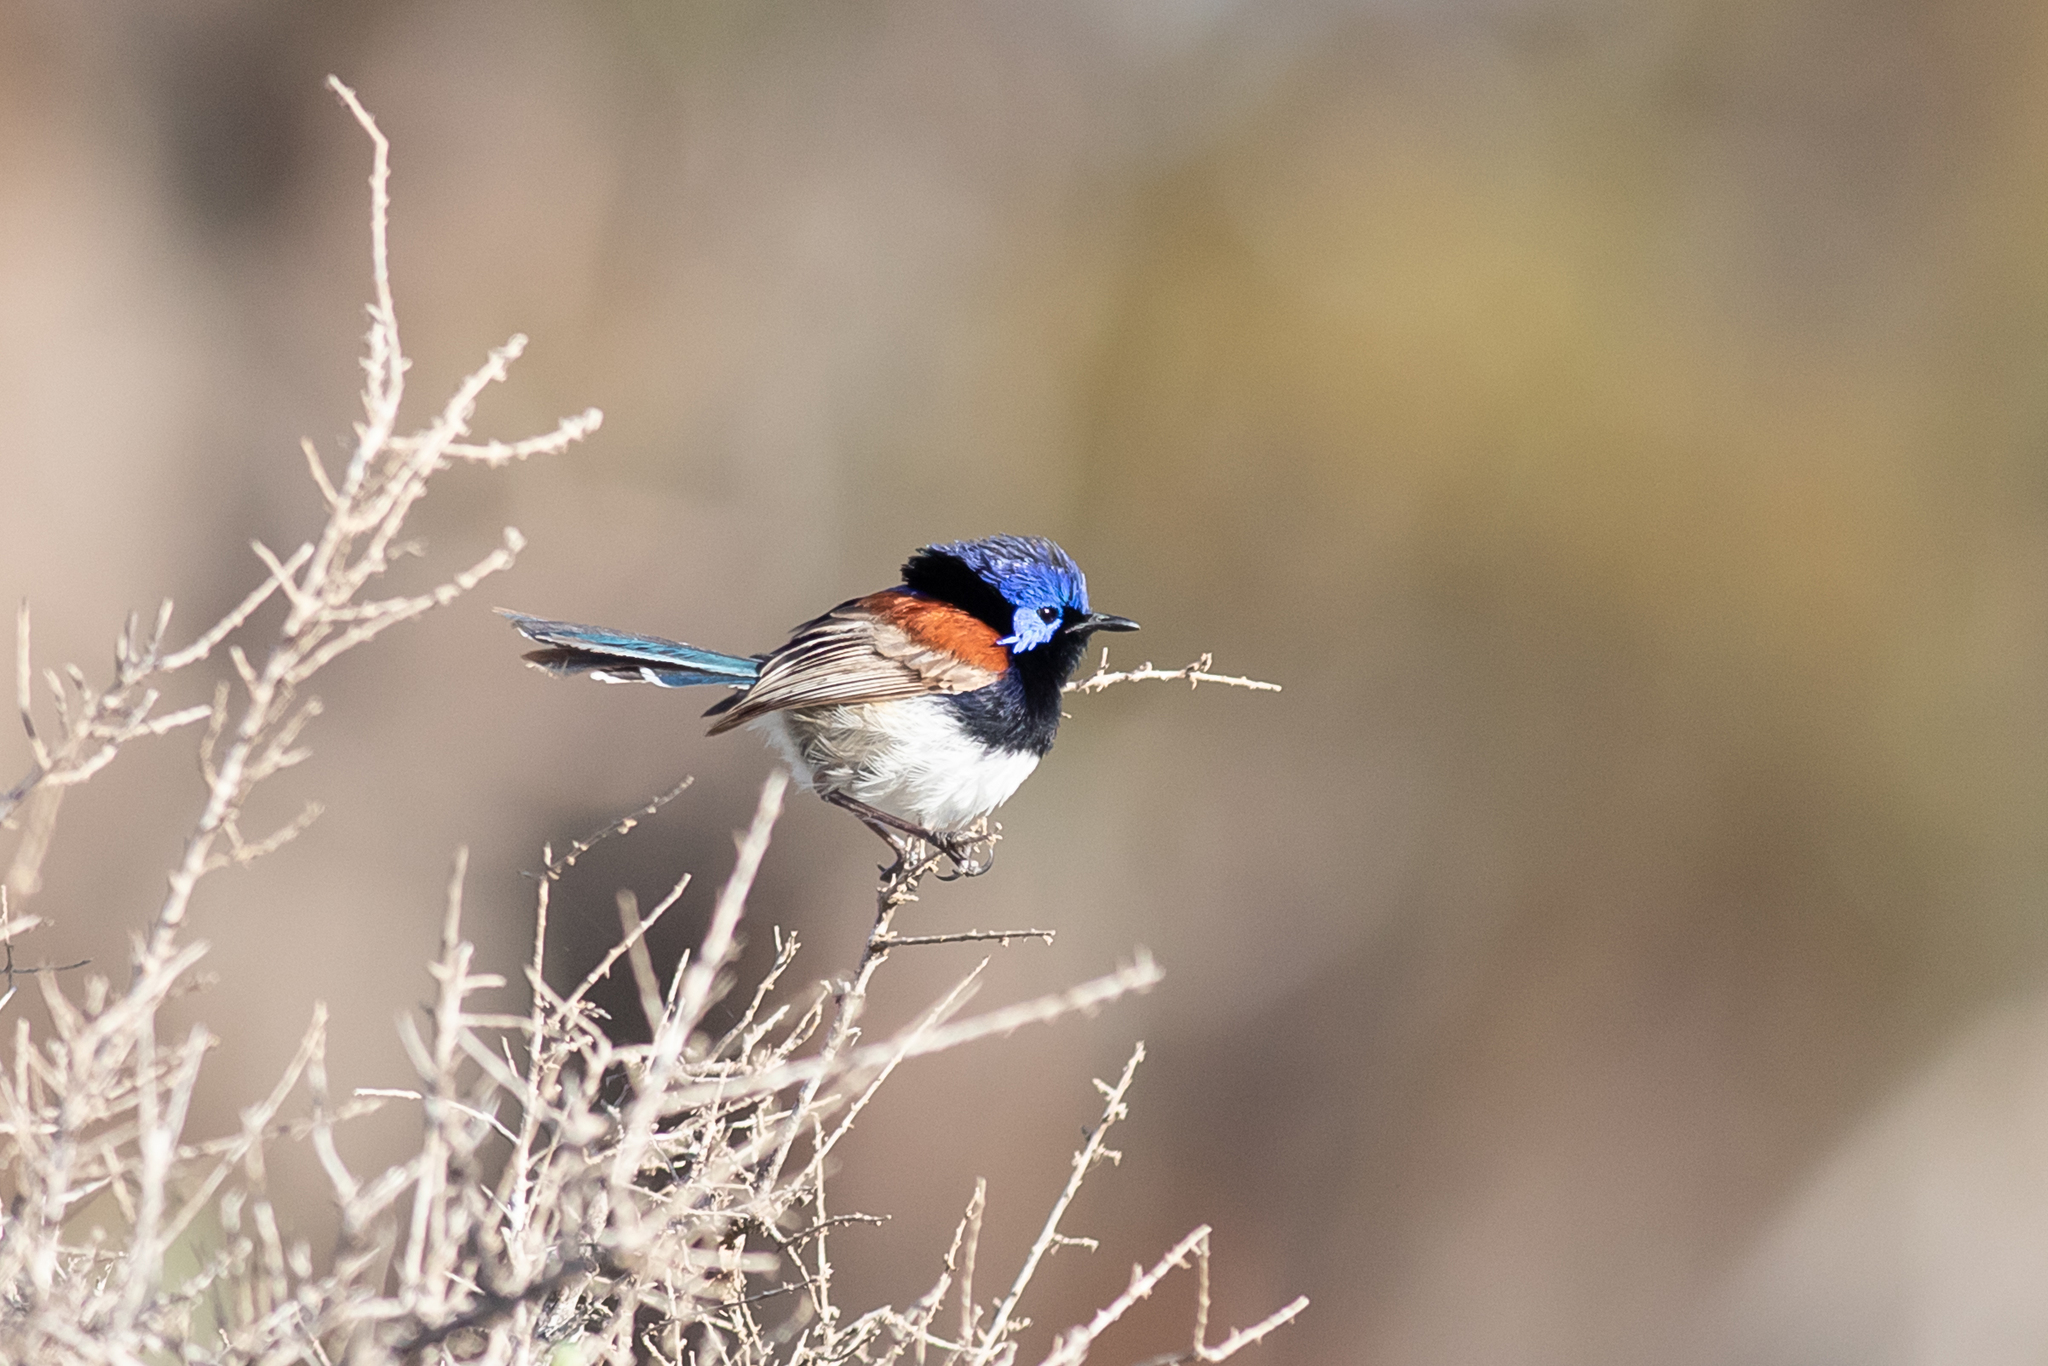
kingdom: Animalia
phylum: Chordata
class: Aves
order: Passeriformes
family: Maluridae
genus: Malurus
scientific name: Malurus assimilis
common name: Purple-backed fairywren
